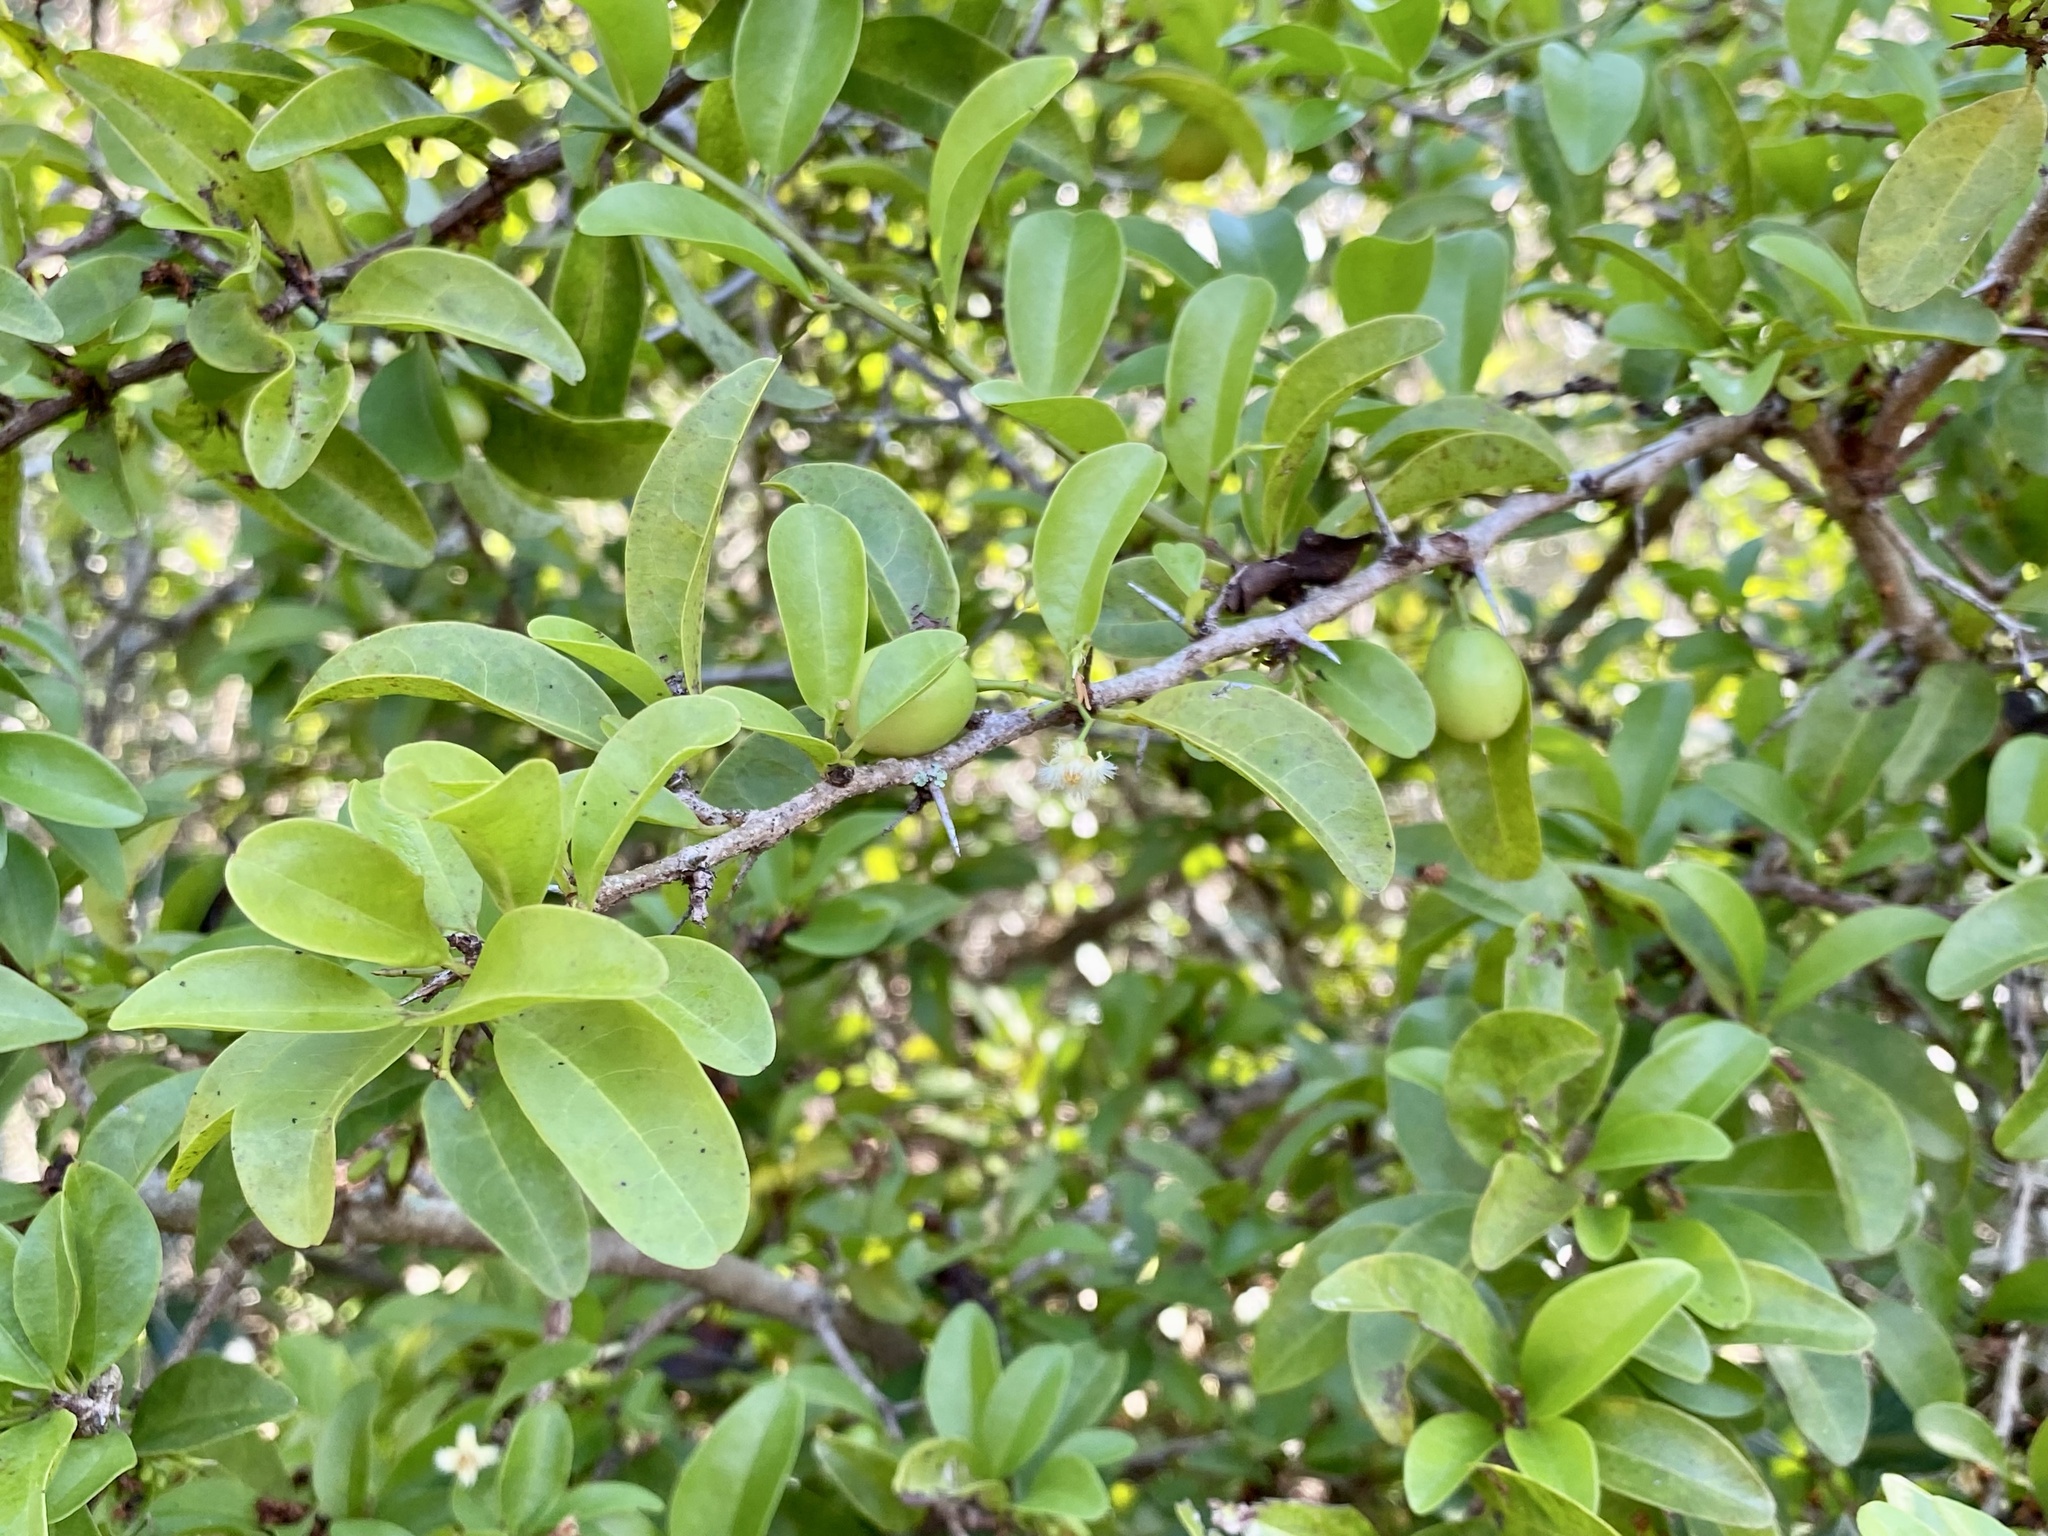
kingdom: Plantae
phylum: Tracheophyta
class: Magnoliopsida
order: Santalales
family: Ximeniaceae
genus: Ximenia
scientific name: Ximenia americana
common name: Tallowwood
